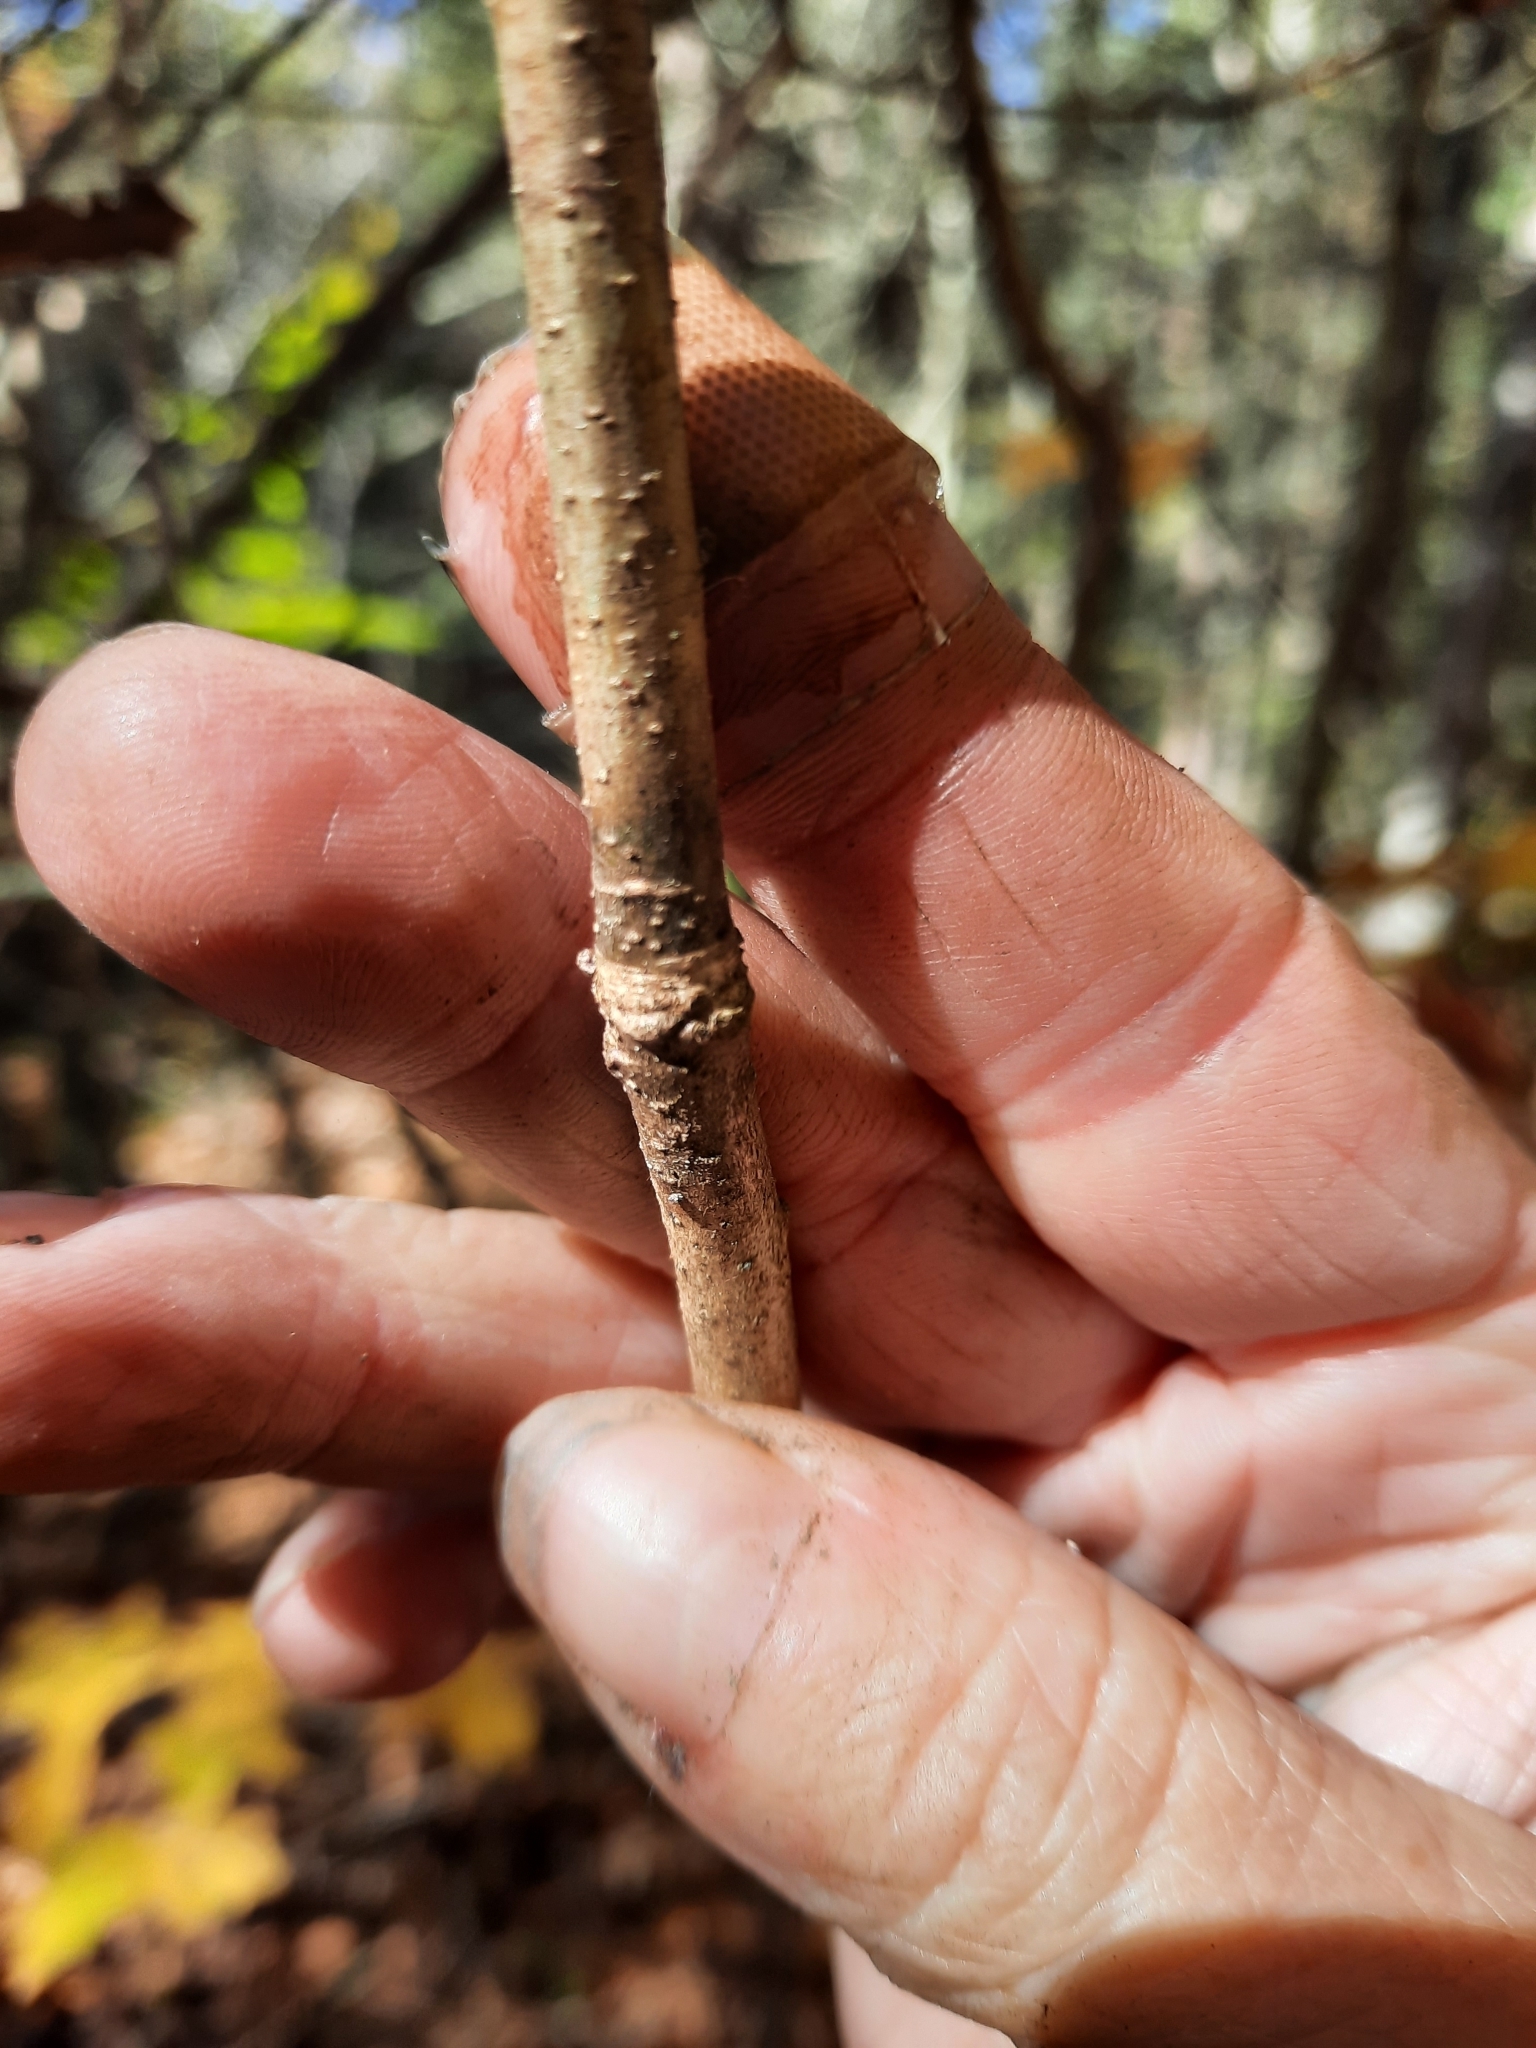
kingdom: Plantae
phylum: Tracheophyta
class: Magnoliopsida
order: Fagales
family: Fagaceae
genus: Quercus
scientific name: Quercus alba
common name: White oak
